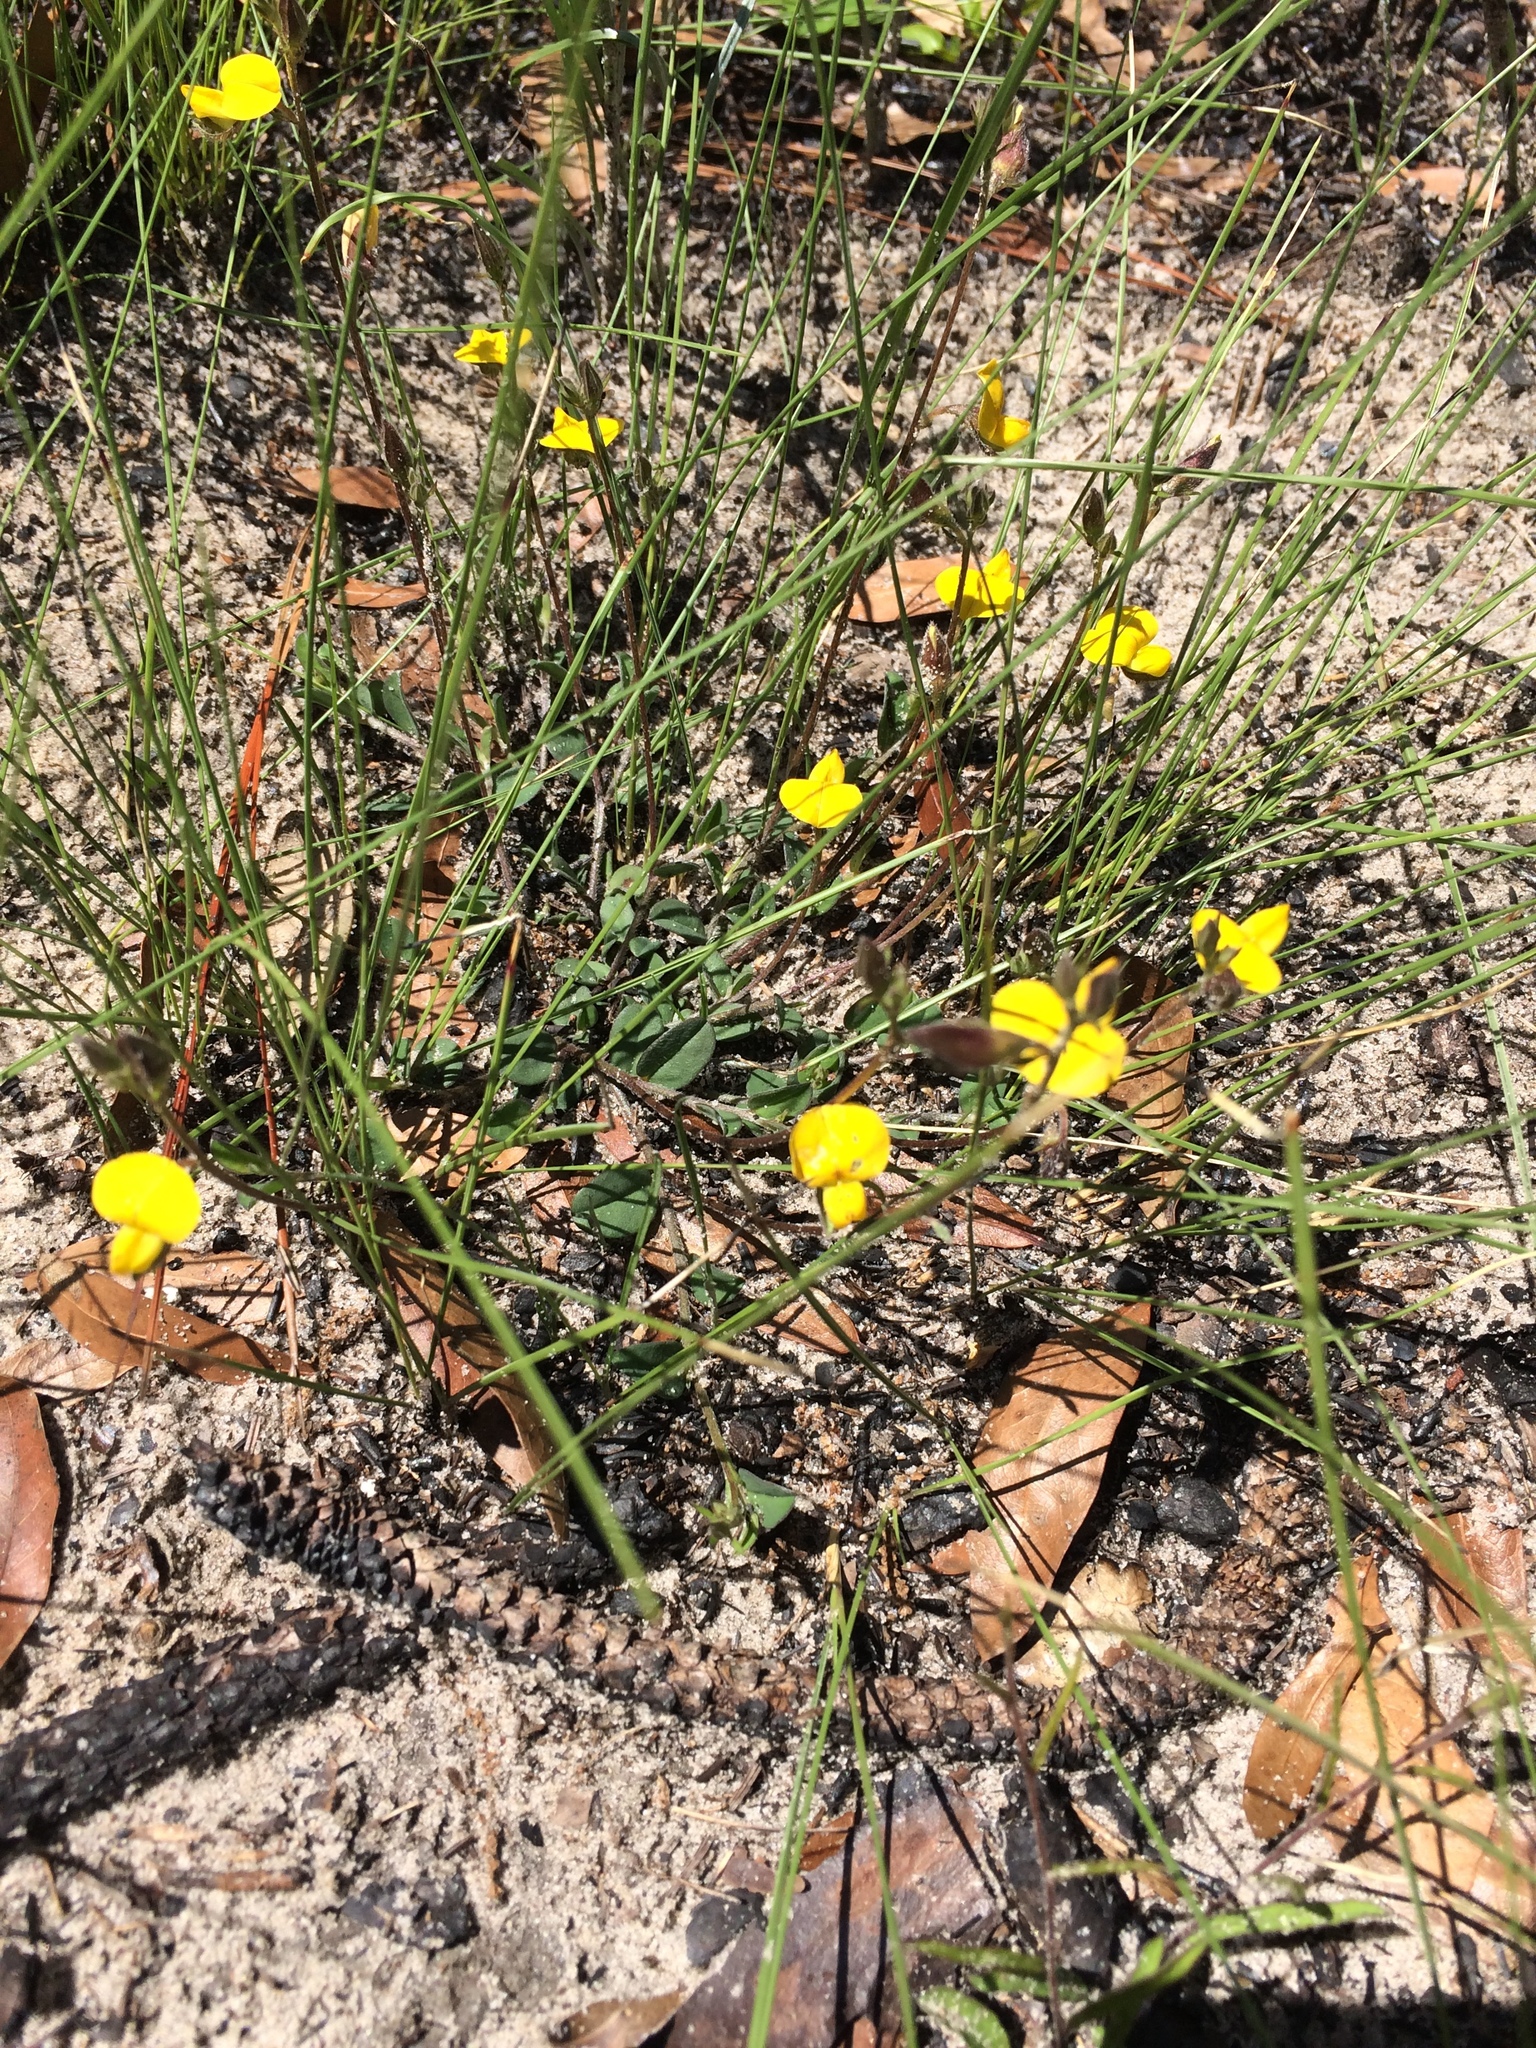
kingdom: Plantae
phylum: Tracheophyta
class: Magnoliopsida
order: Fabales
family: Fabaceae
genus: Crotalaria
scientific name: Crotalaria rotundifolia
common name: Prostrate rattlebox
